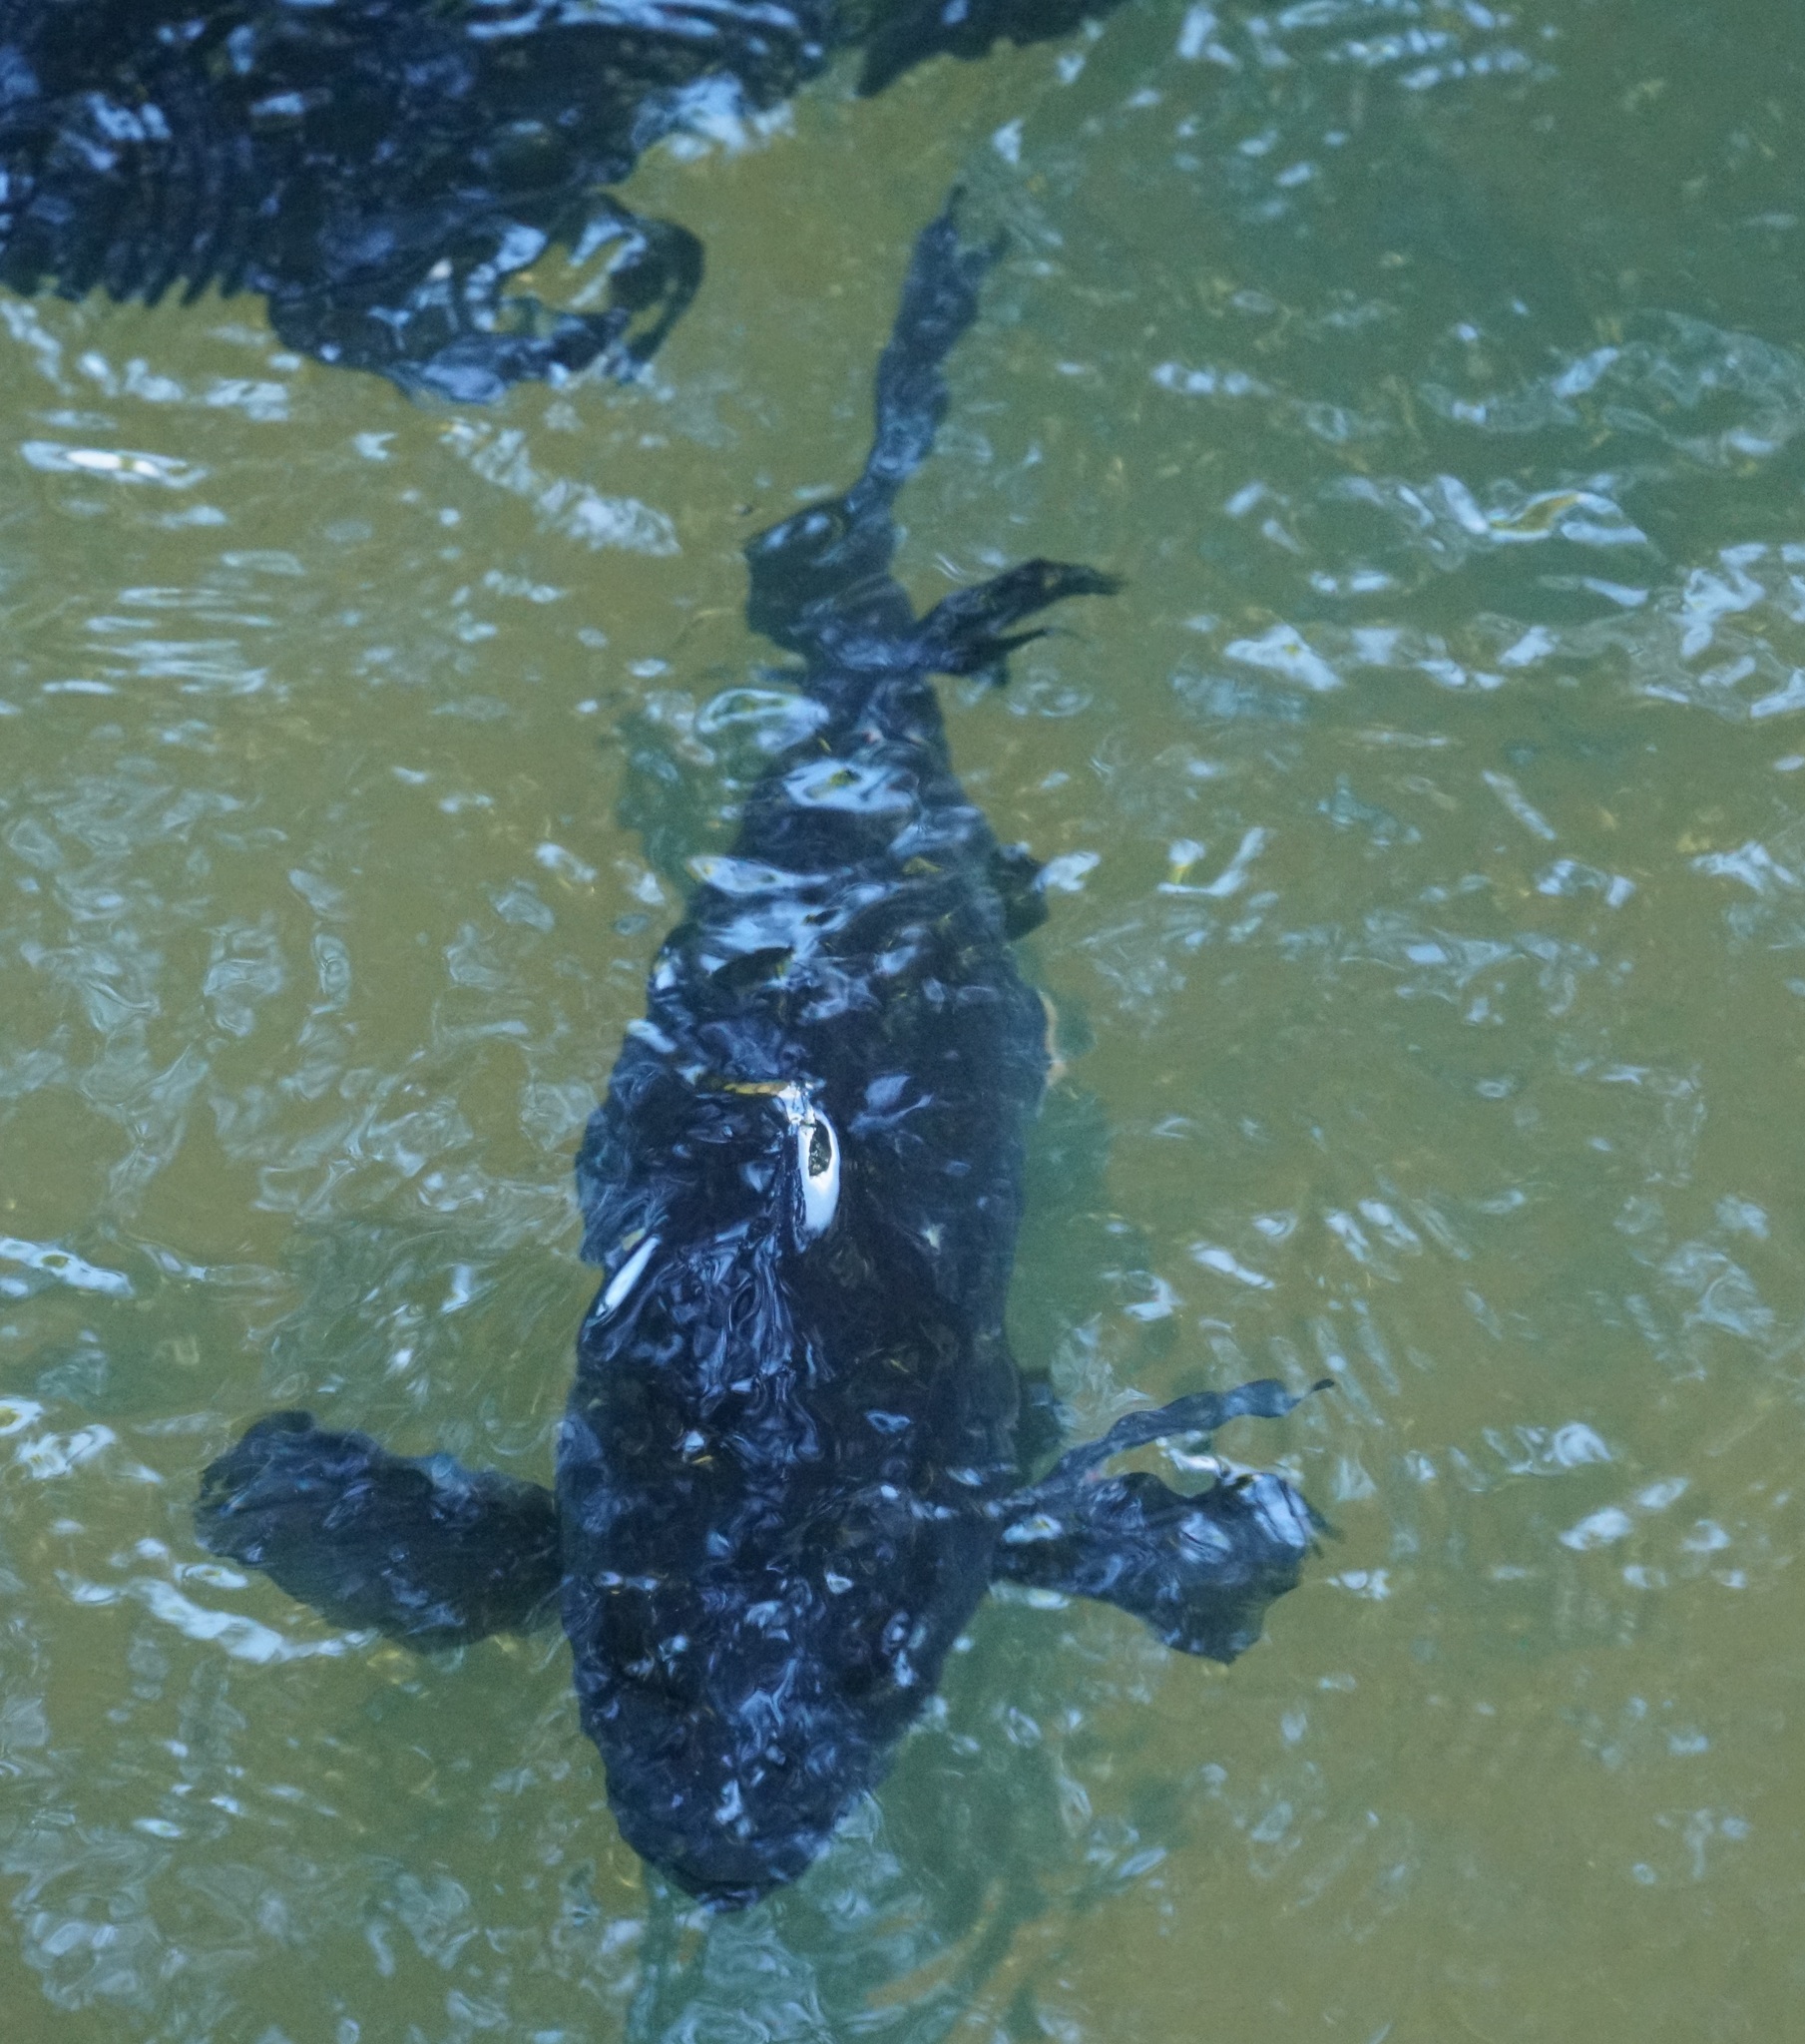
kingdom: Animalia
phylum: Chordata
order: Perciformes
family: Terapontidae
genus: Hephaestus
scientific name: Hephaestus fuliginosus
